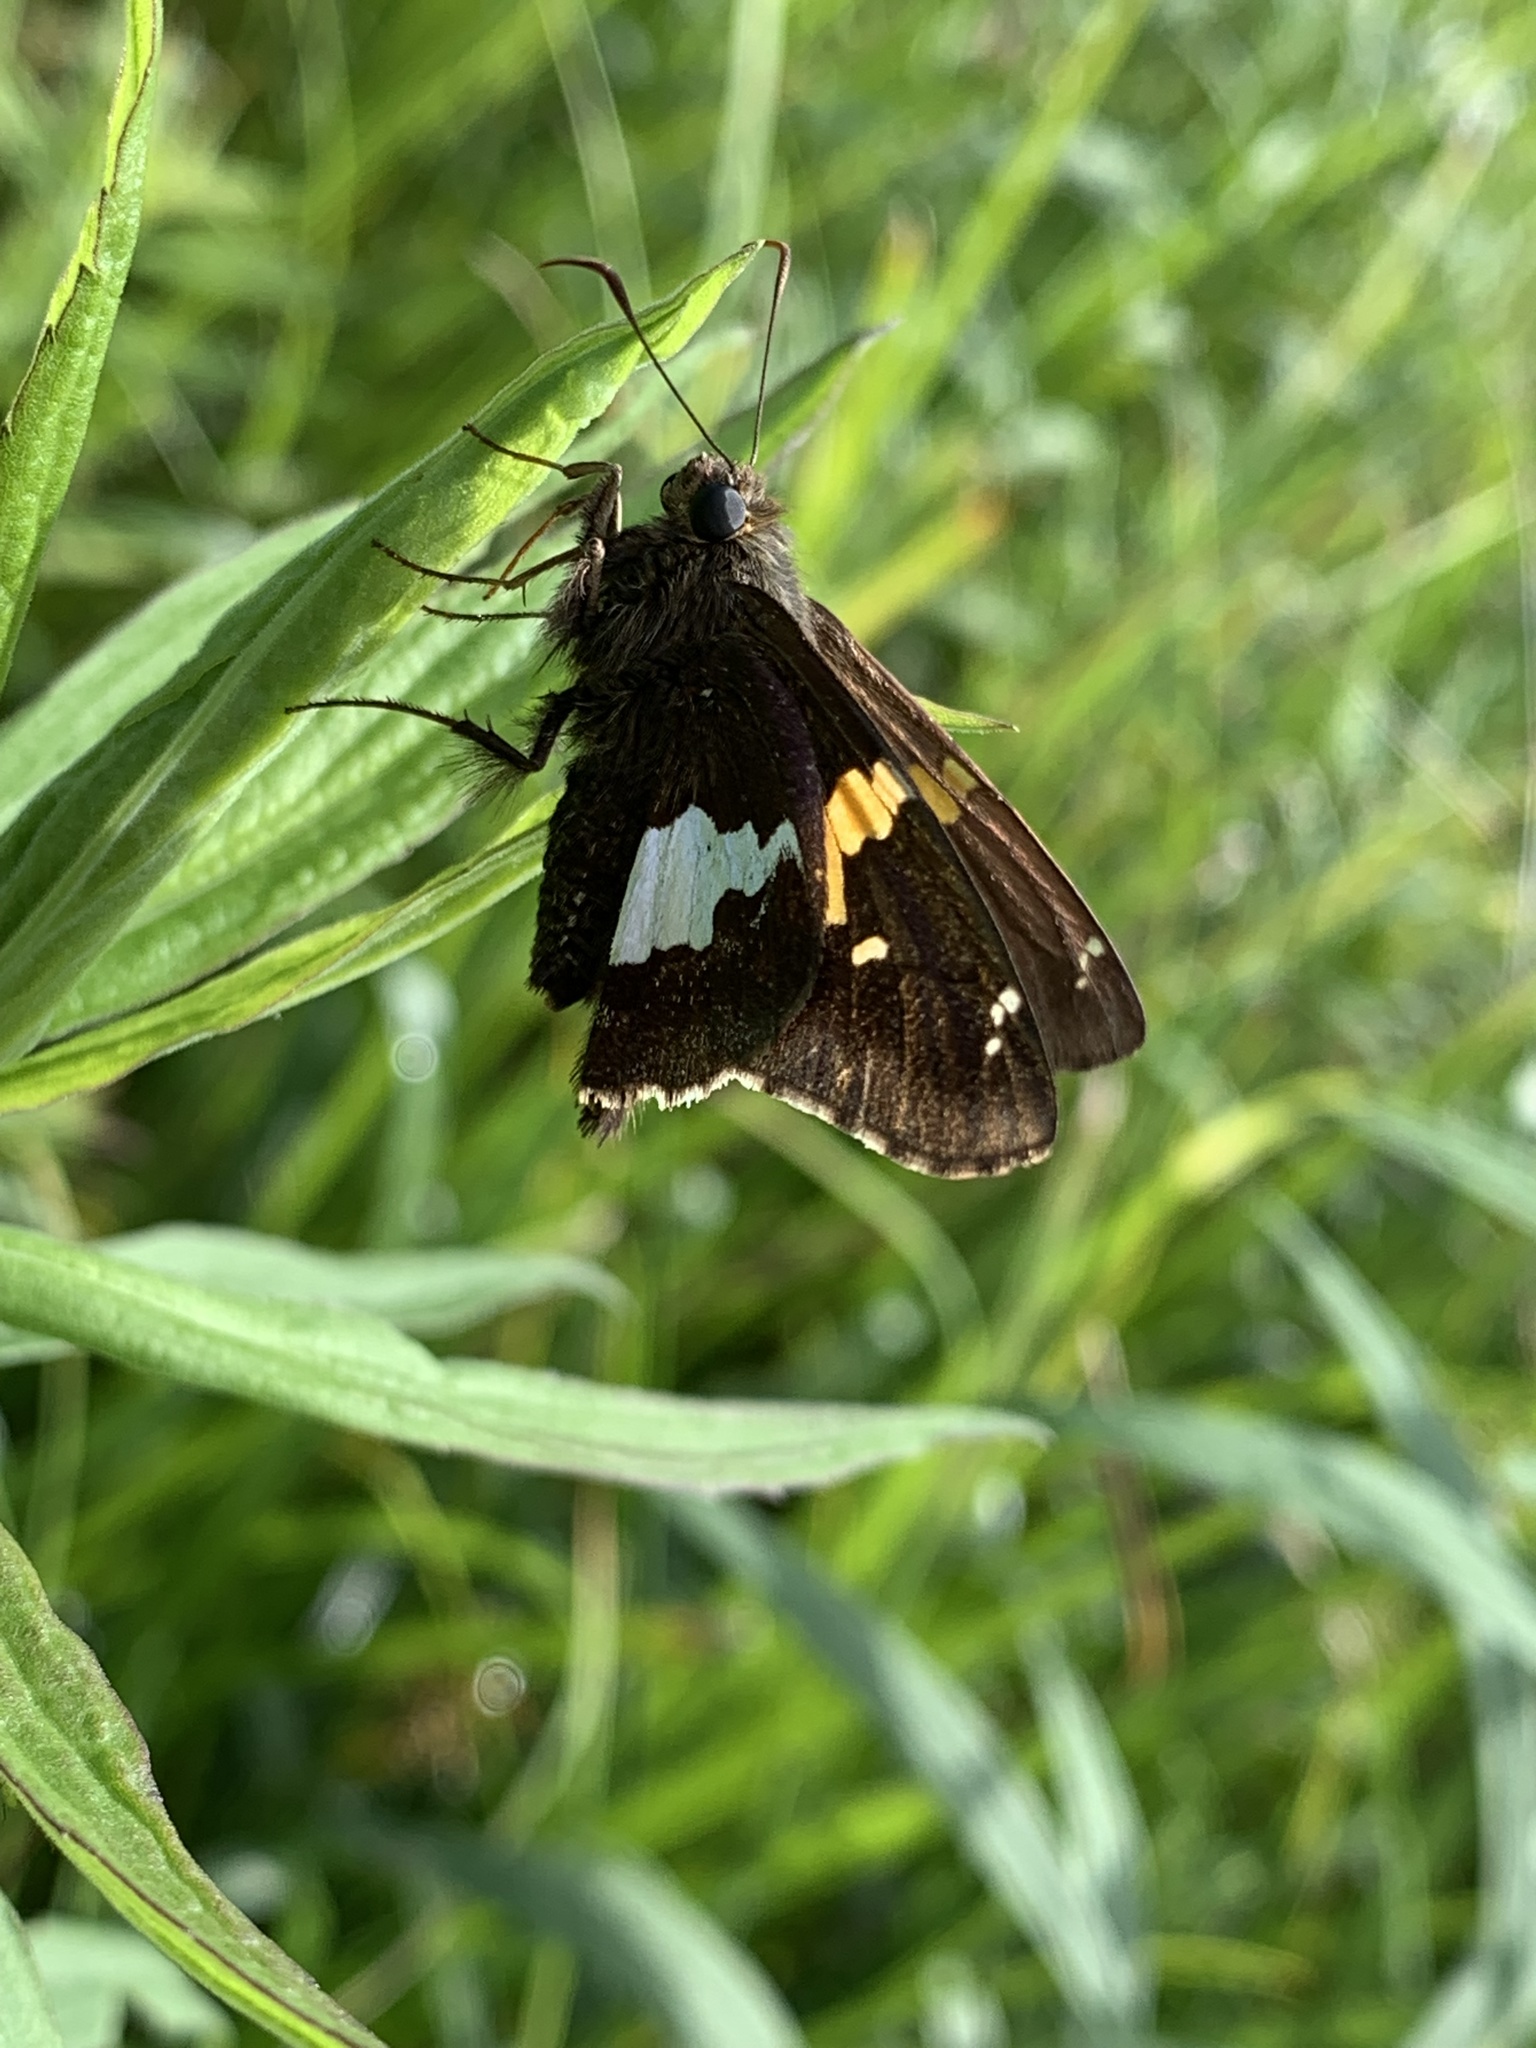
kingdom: Animalia
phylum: Arthropoda
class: Insecta
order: Lepidoptera
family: Hesperiidae
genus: Epargyreus
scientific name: Epargyreus clarus
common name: Silver-spotted skipper
